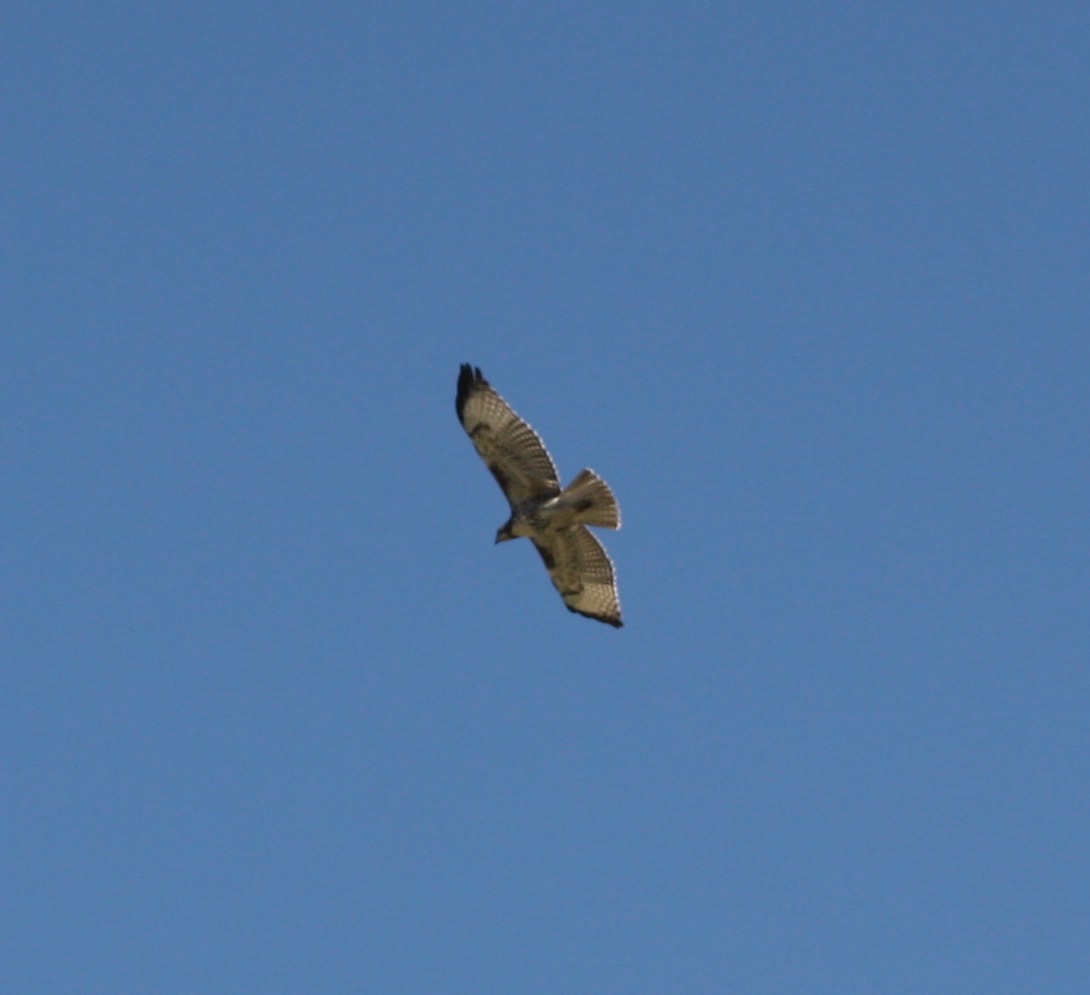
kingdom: Animalia
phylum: Chordata
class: Aves
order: Accipitriformes
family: Accipitridae
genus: Buteo
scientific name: Buteo jamaicensis
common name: Red-tailed hawk
